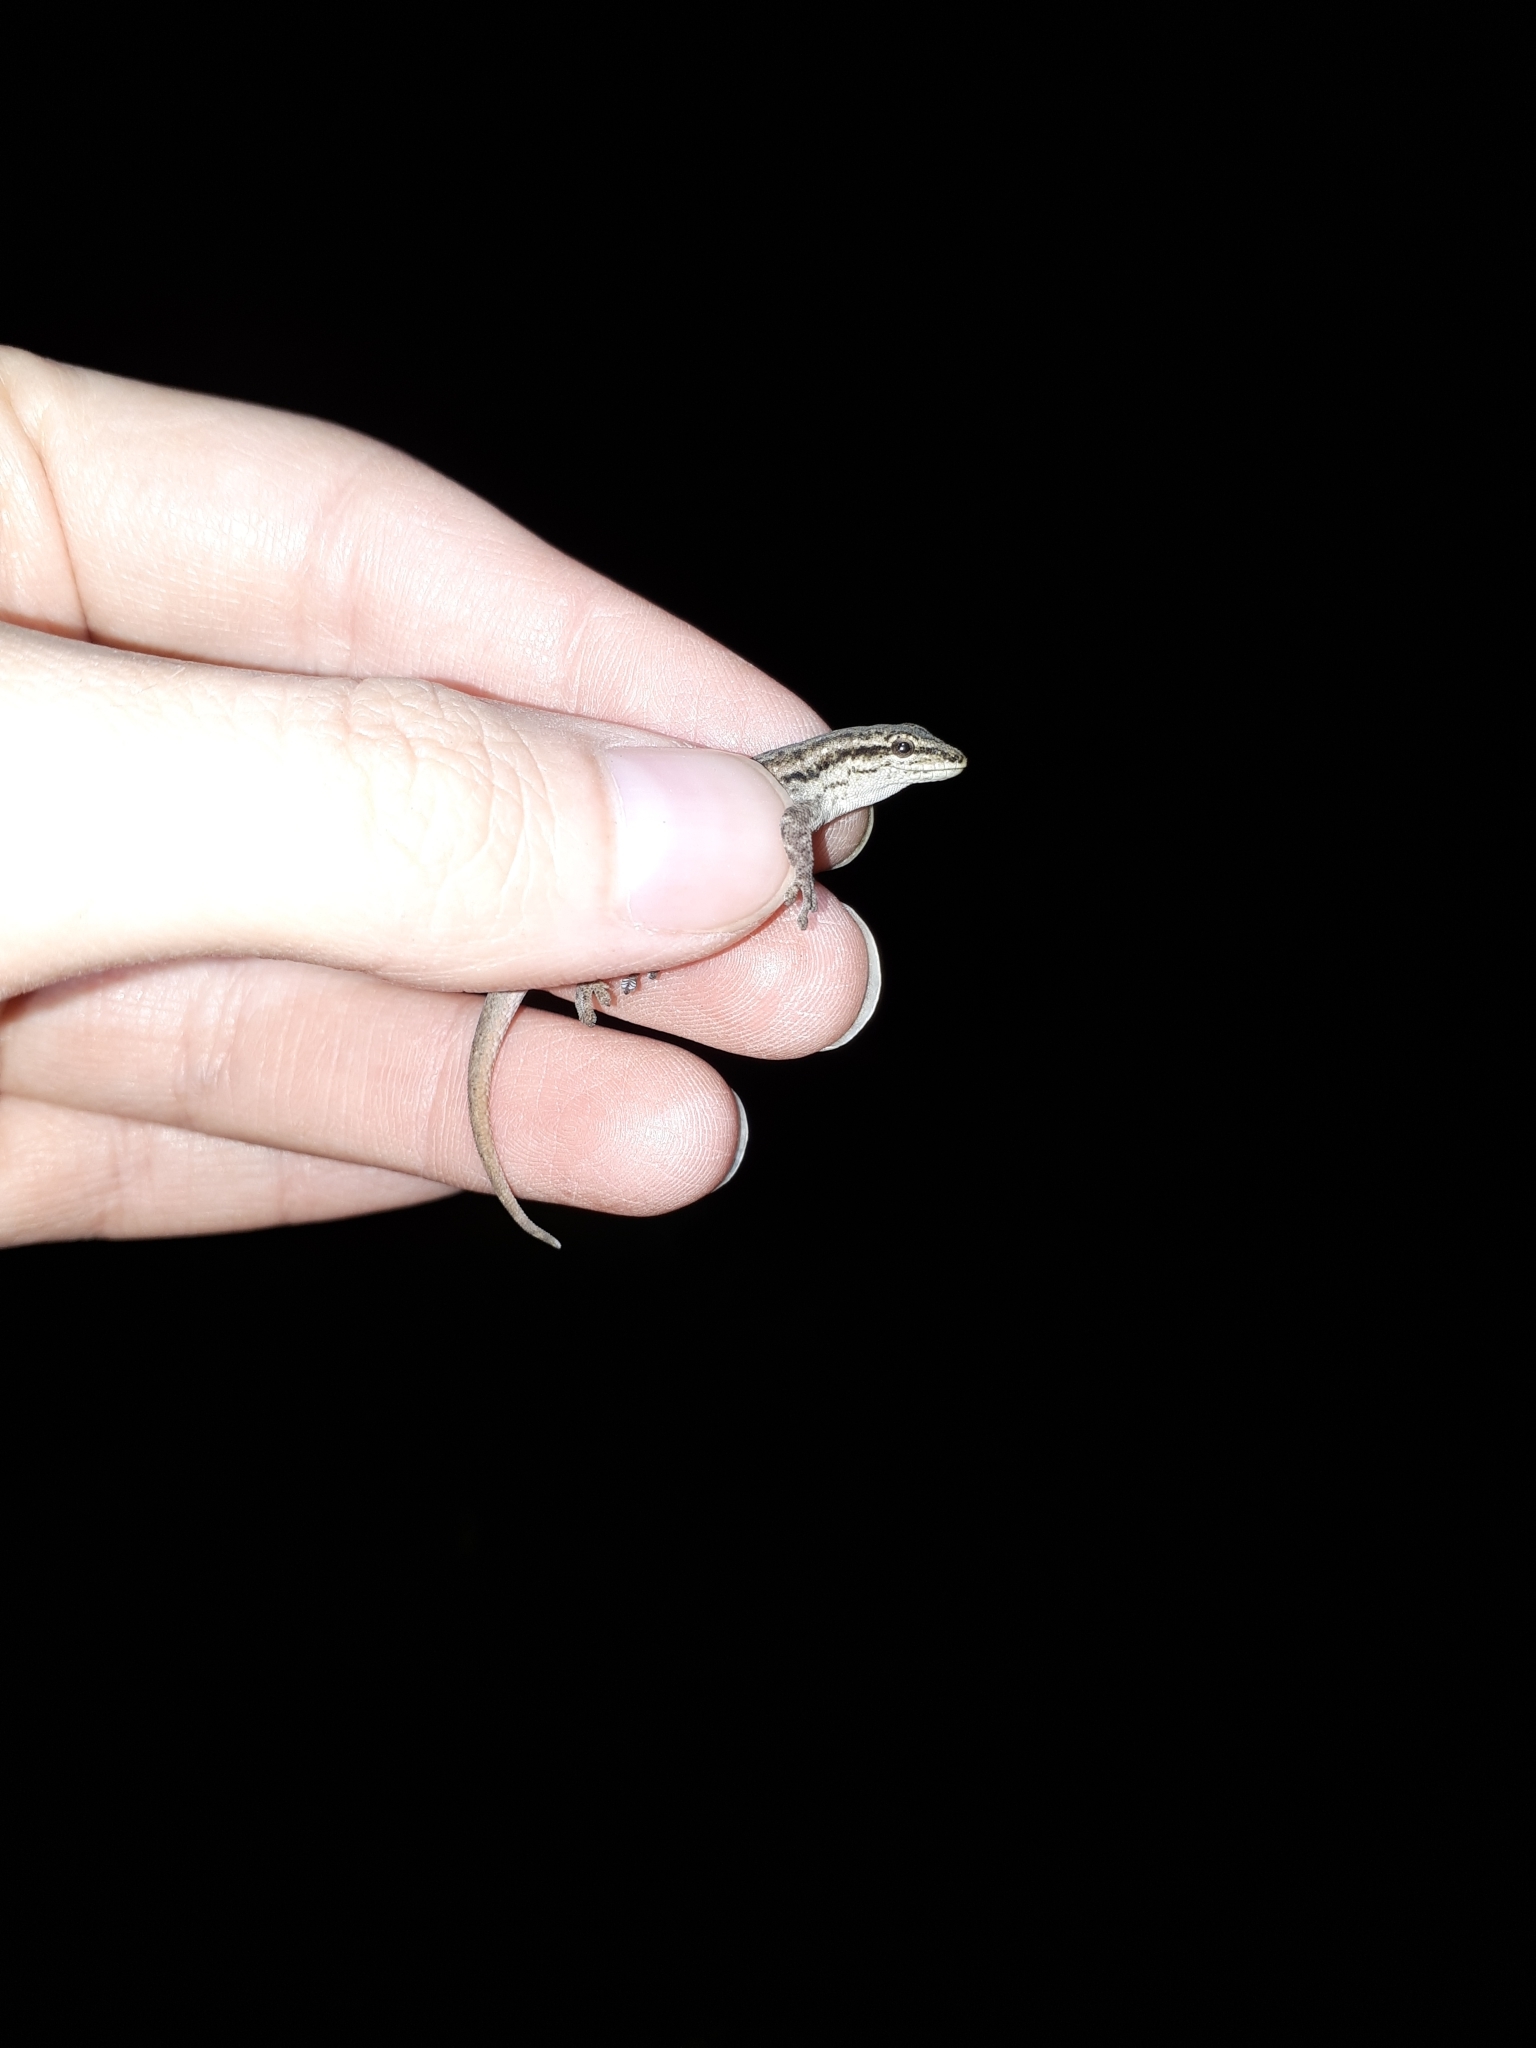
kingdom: Animalia
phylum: Chordata
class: Squamata
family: Gekkonidae
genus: Lygodactylus
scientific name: Lygodactylus capensis
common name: Cape dwarf gecko
